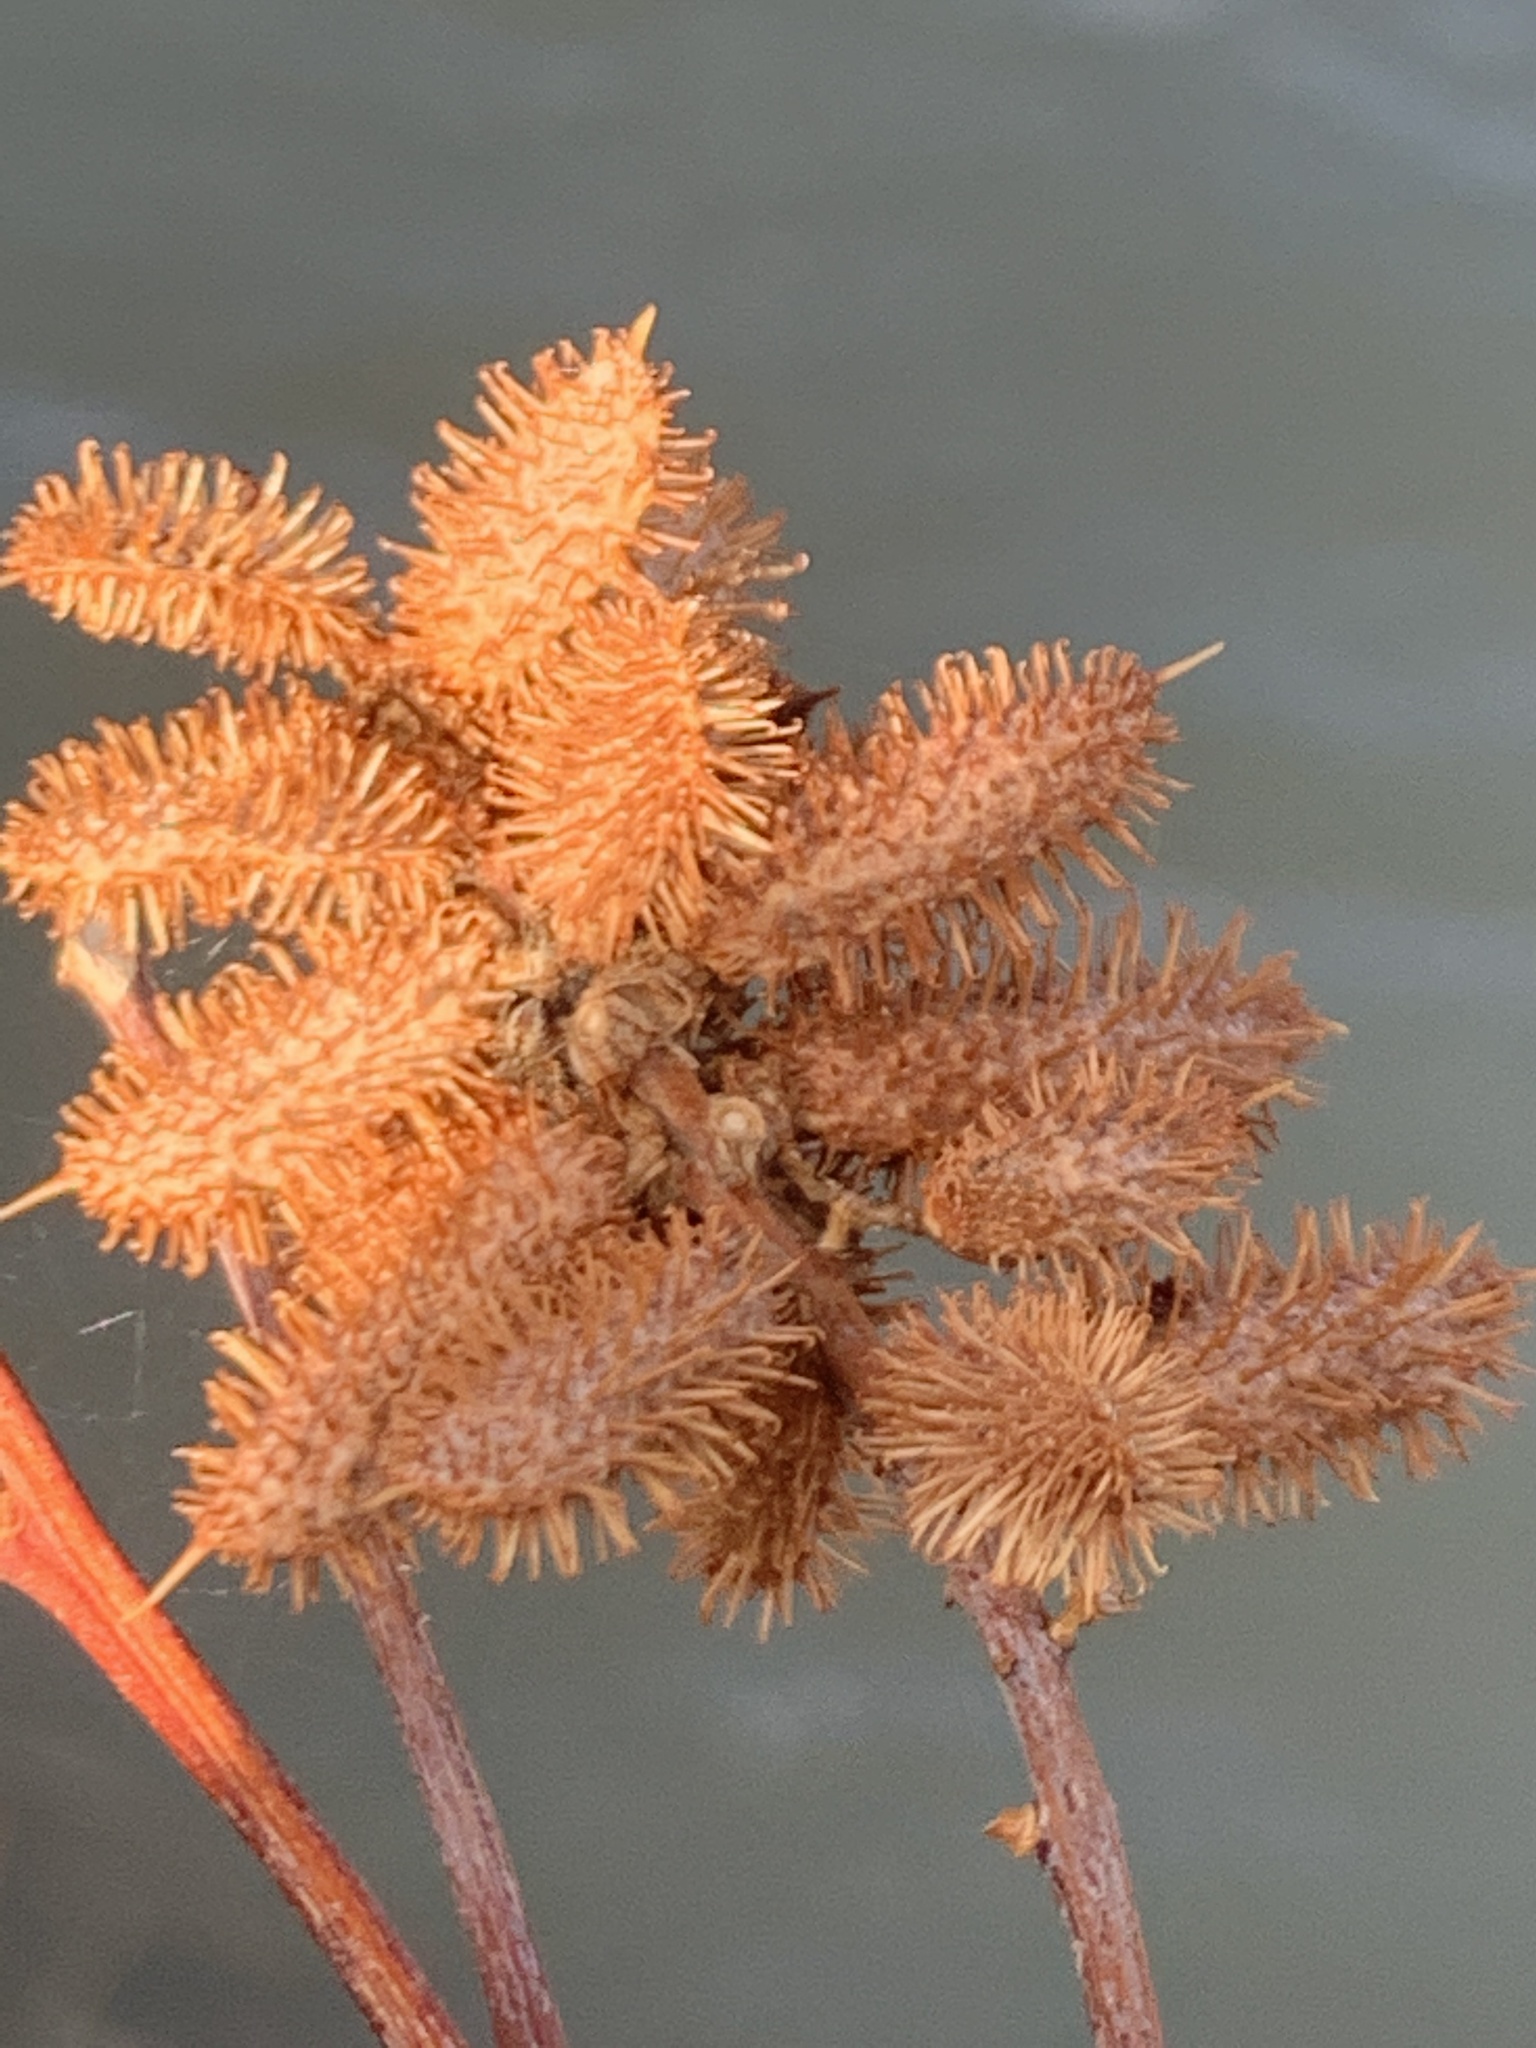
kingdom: Plantae
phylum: Tracheophyta
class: Magnoliopsida
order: Fabales
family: Fabaceae
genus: Glycyrrhiza
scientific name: Glycyrrhiza lepidota
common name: American liquorice
